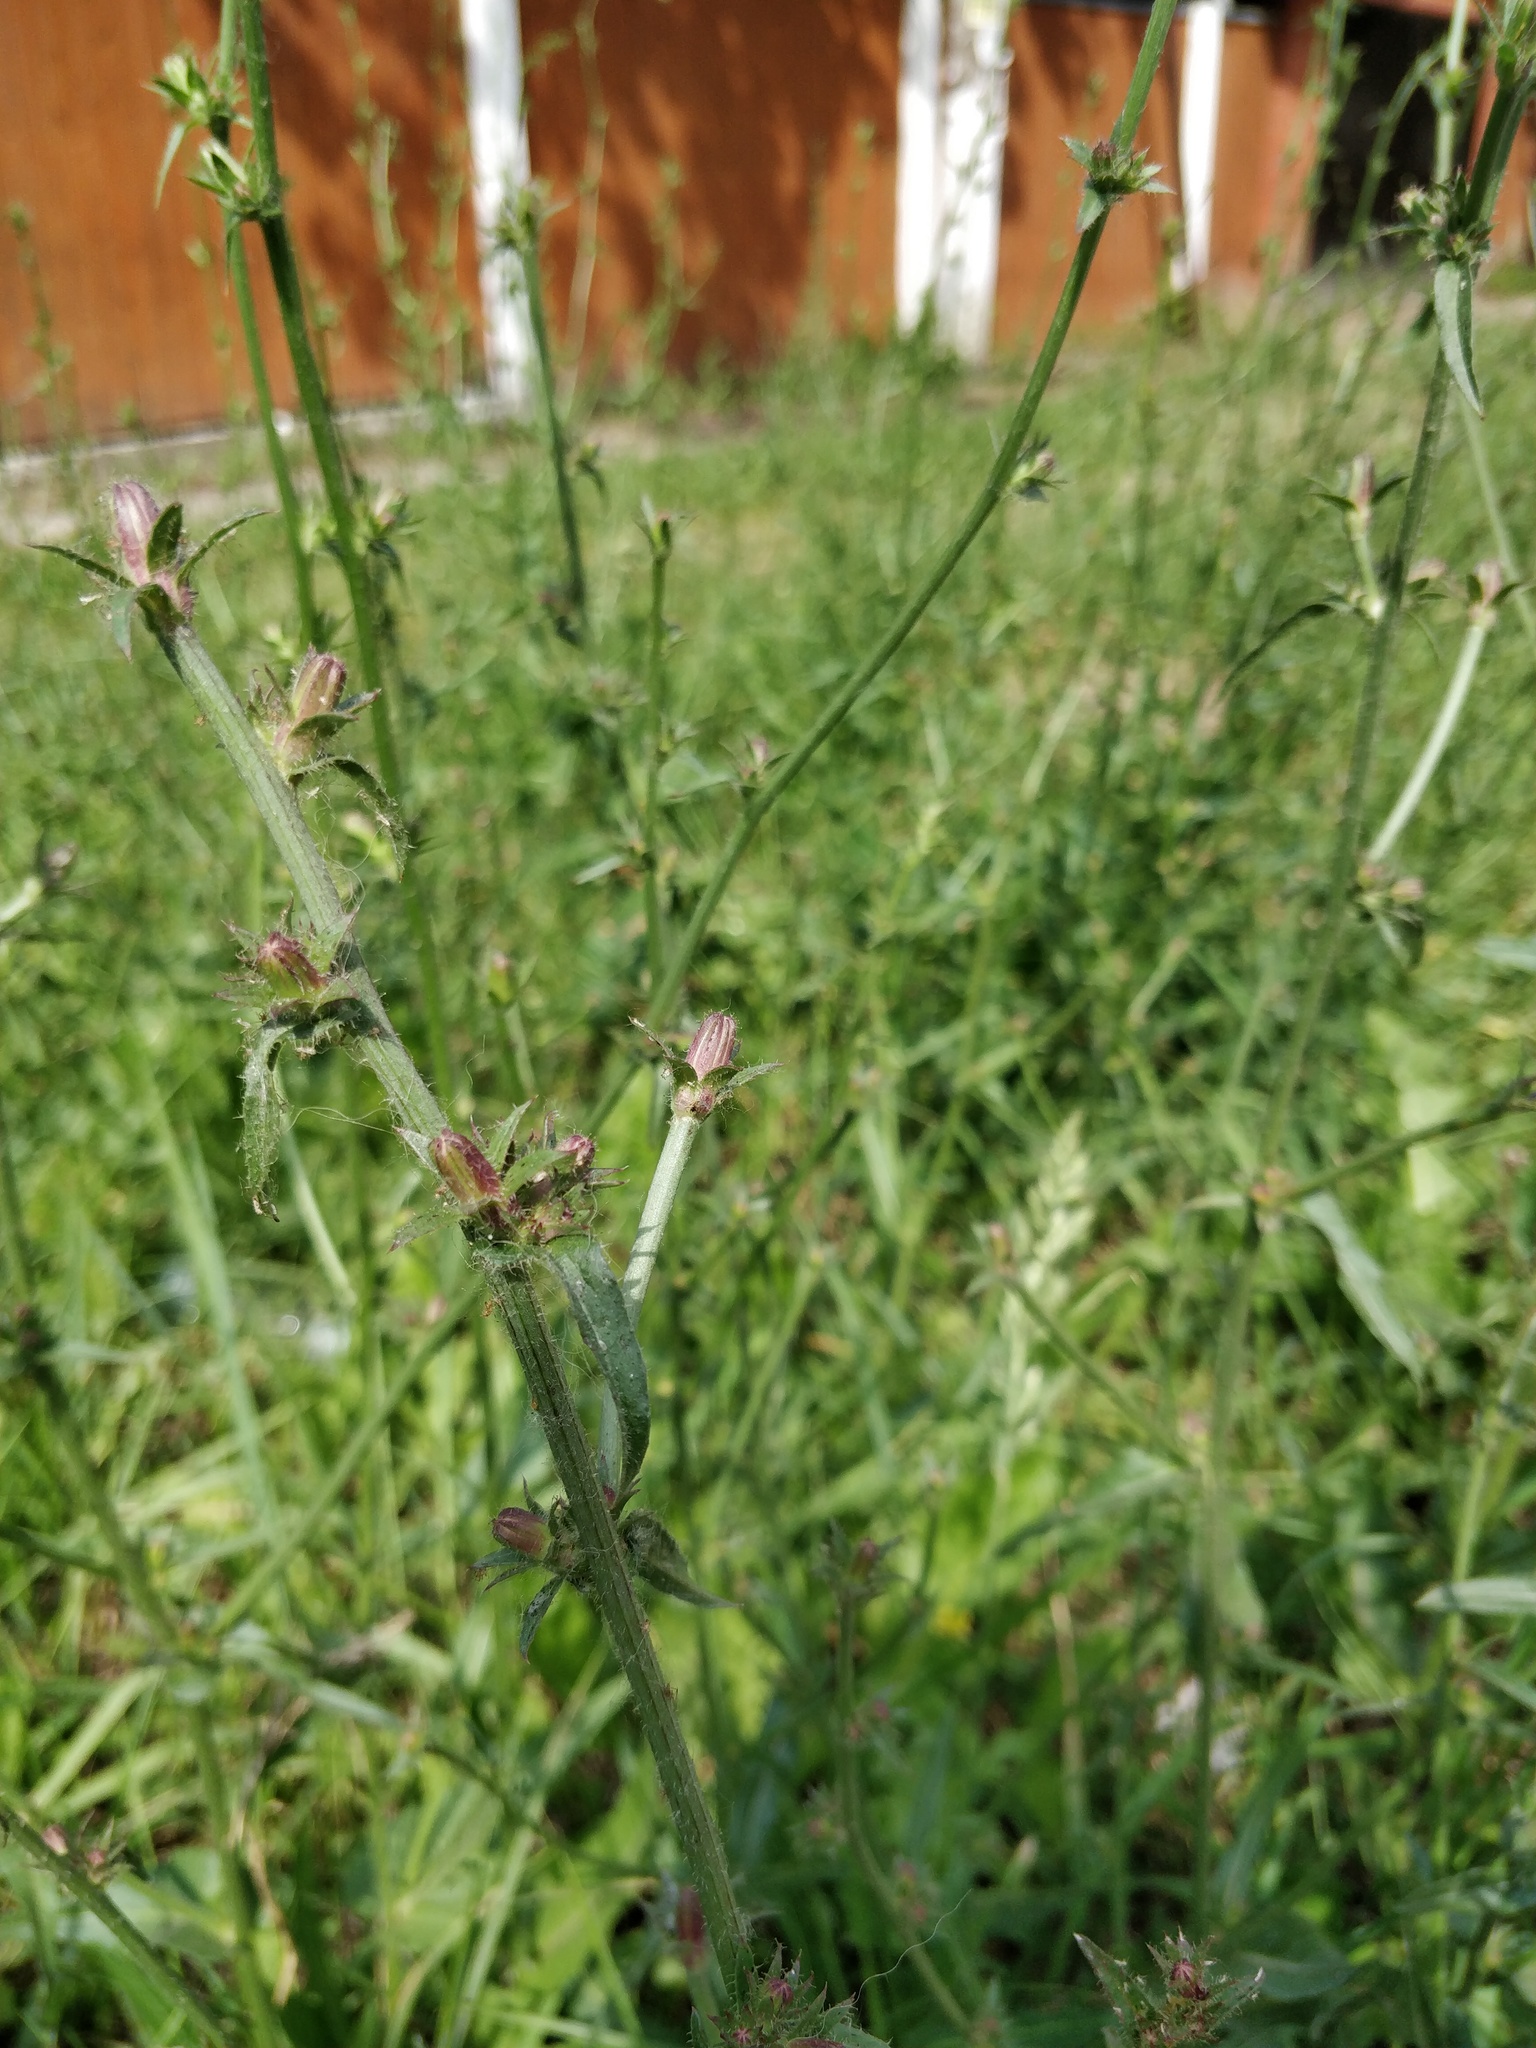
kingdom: Plantae
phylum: Tracheophyta
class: Magnoliopsida
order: Asterales
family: Asteraceae
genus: Cichorium
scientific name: Cichorium intybus
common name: Chicory
